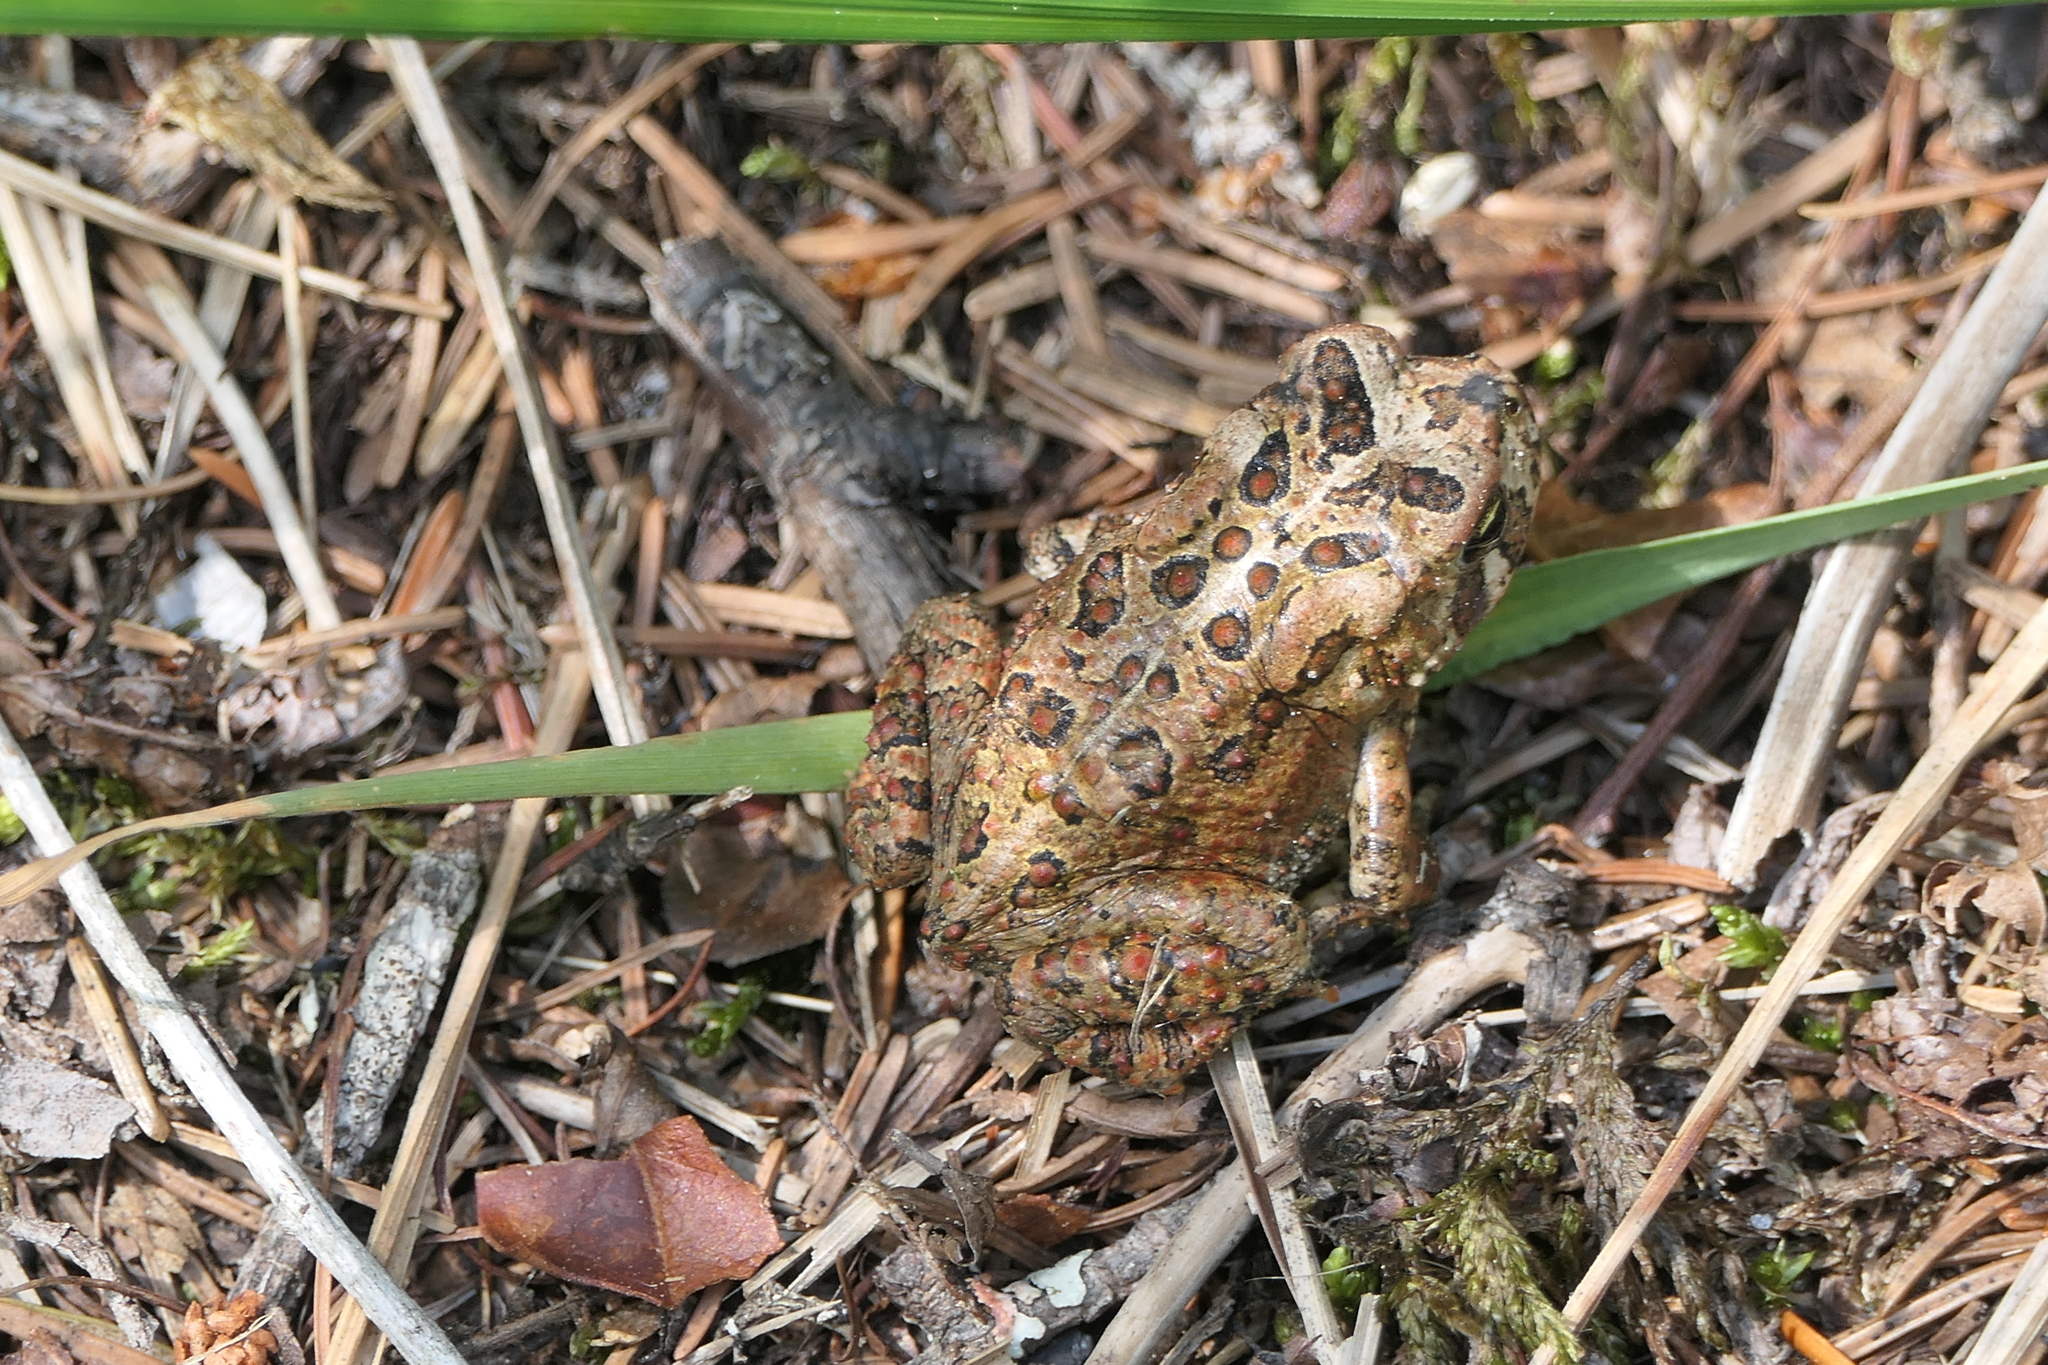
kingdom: Animalia
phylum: Chordata
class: Amphibia
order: Anura
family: Bufonidae
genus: Anaxyrus
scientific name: Anaxyrus americanus
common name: American toad
